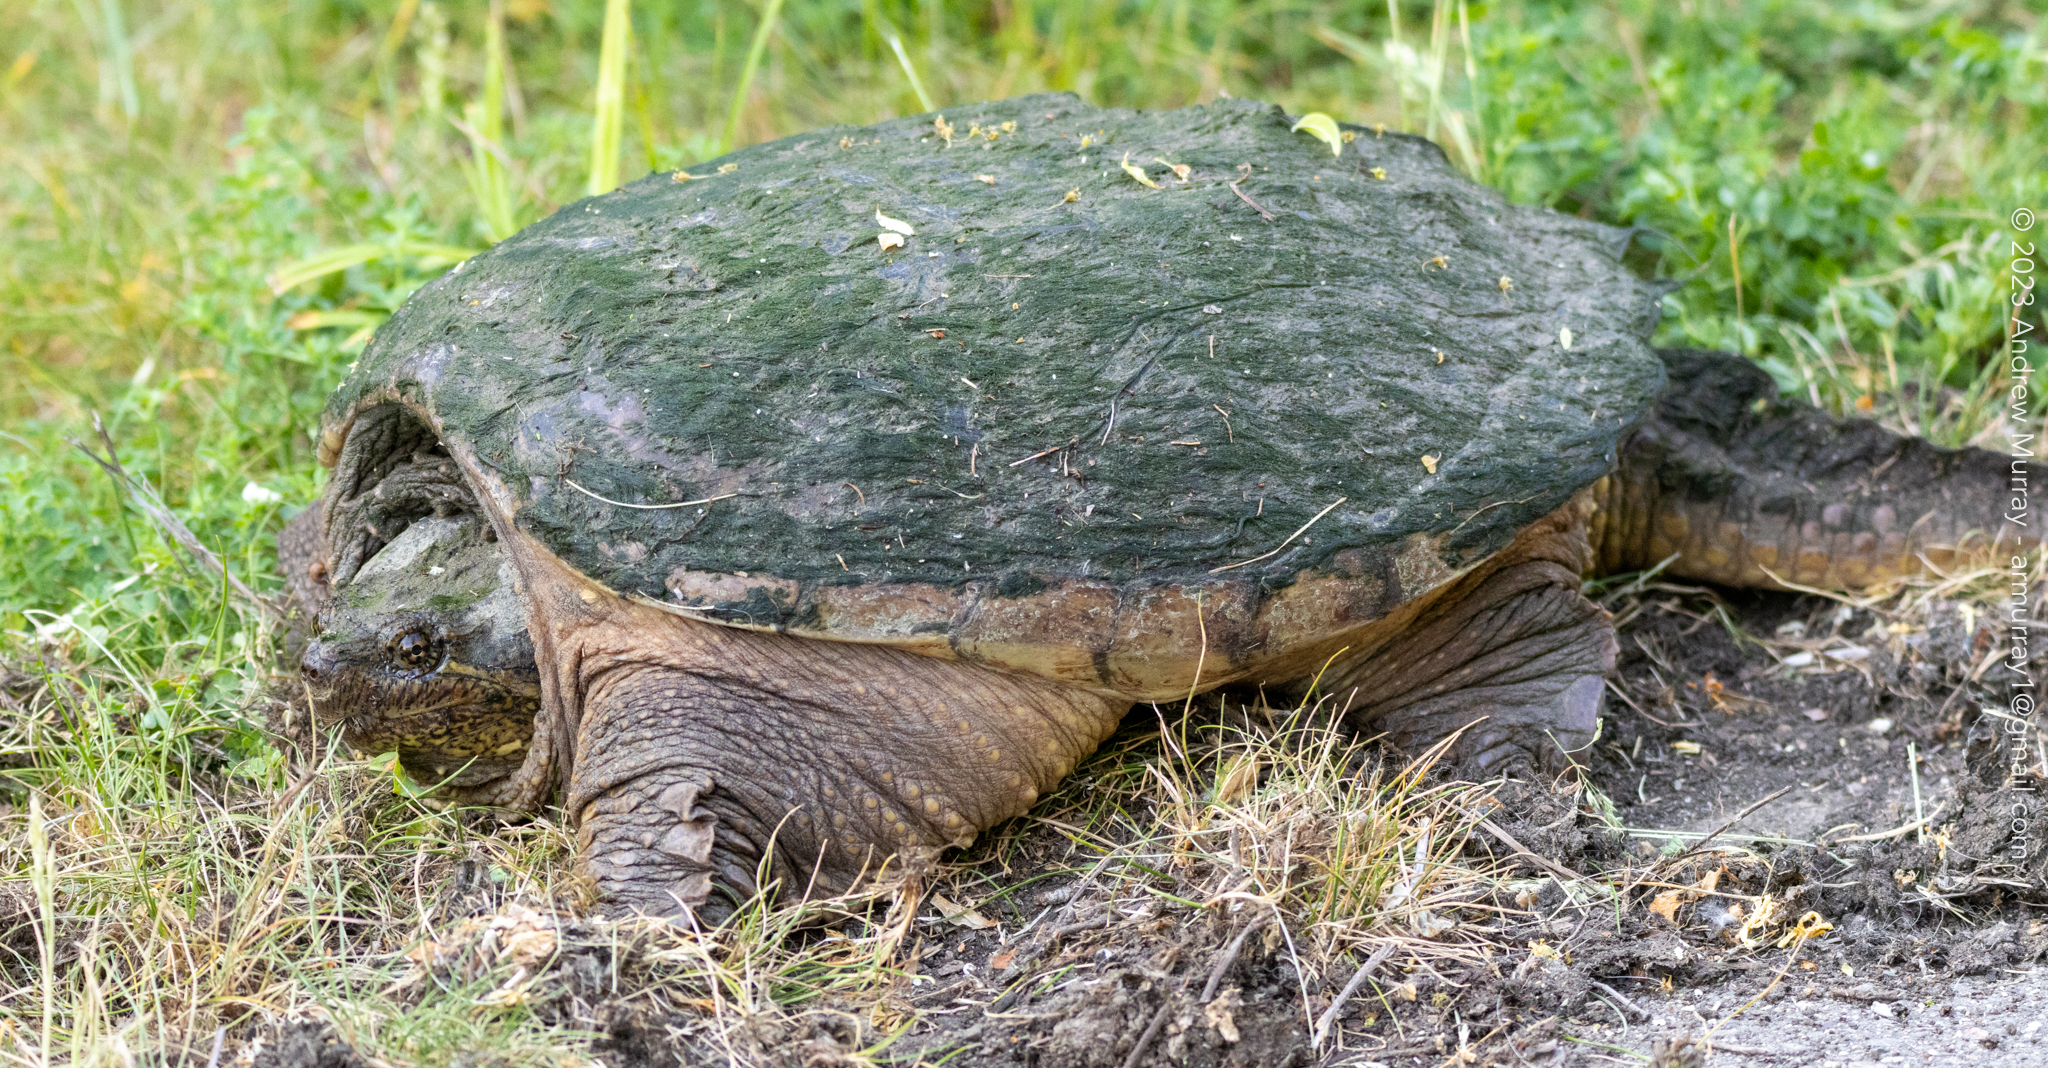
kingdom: Animalia
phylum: Chordata
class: Testudines
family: Chelydridae
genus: Chelydra
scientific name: Chelydra serpentina
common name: Common snapping turtle
